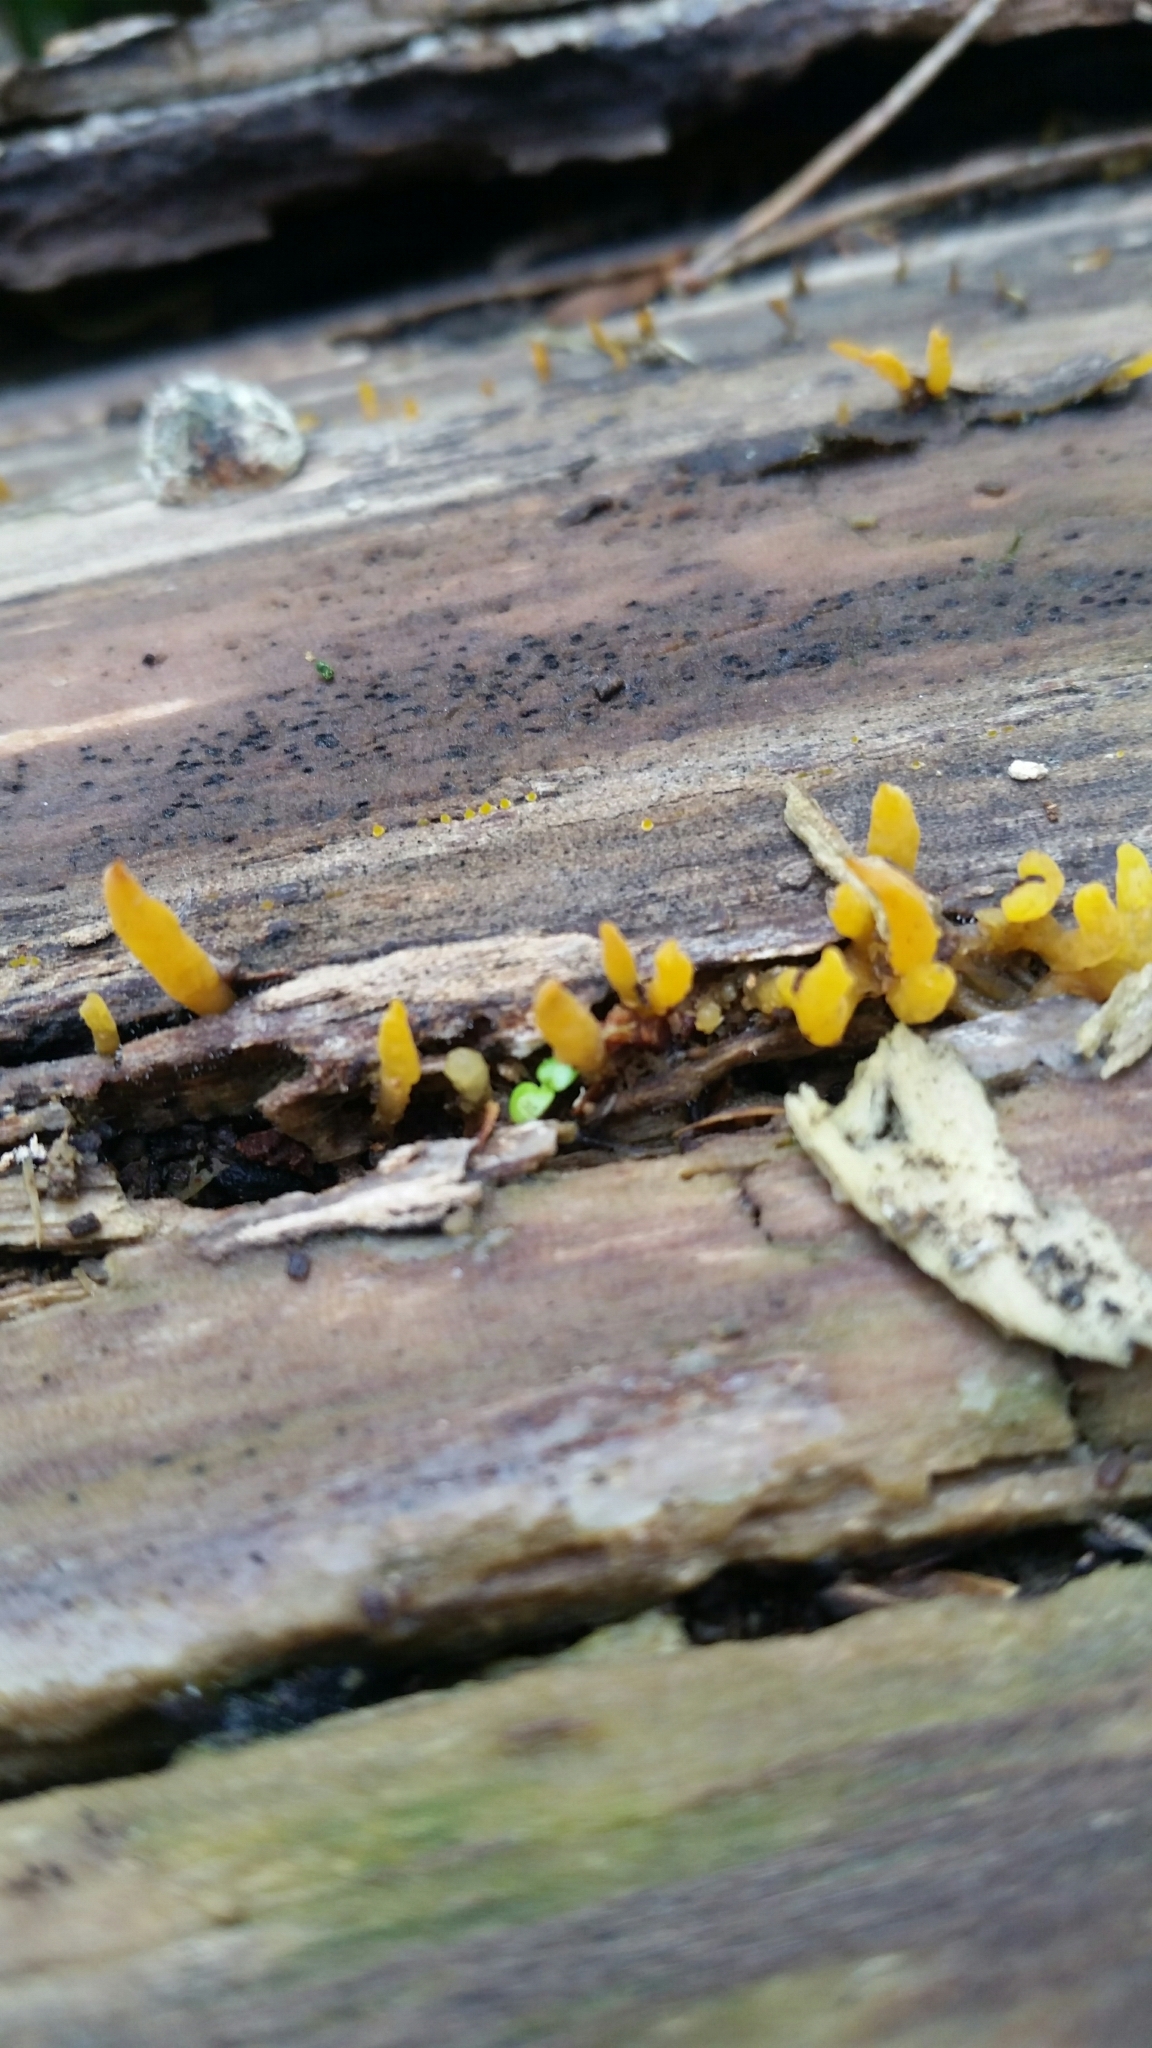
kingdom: Fungi
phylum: Basidiomycota
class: Dacrymycetes
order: Dacrymycetales
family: Dacrymycetaceae
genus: Calocera
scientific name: Calocera cornea
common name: Small stagshorn
